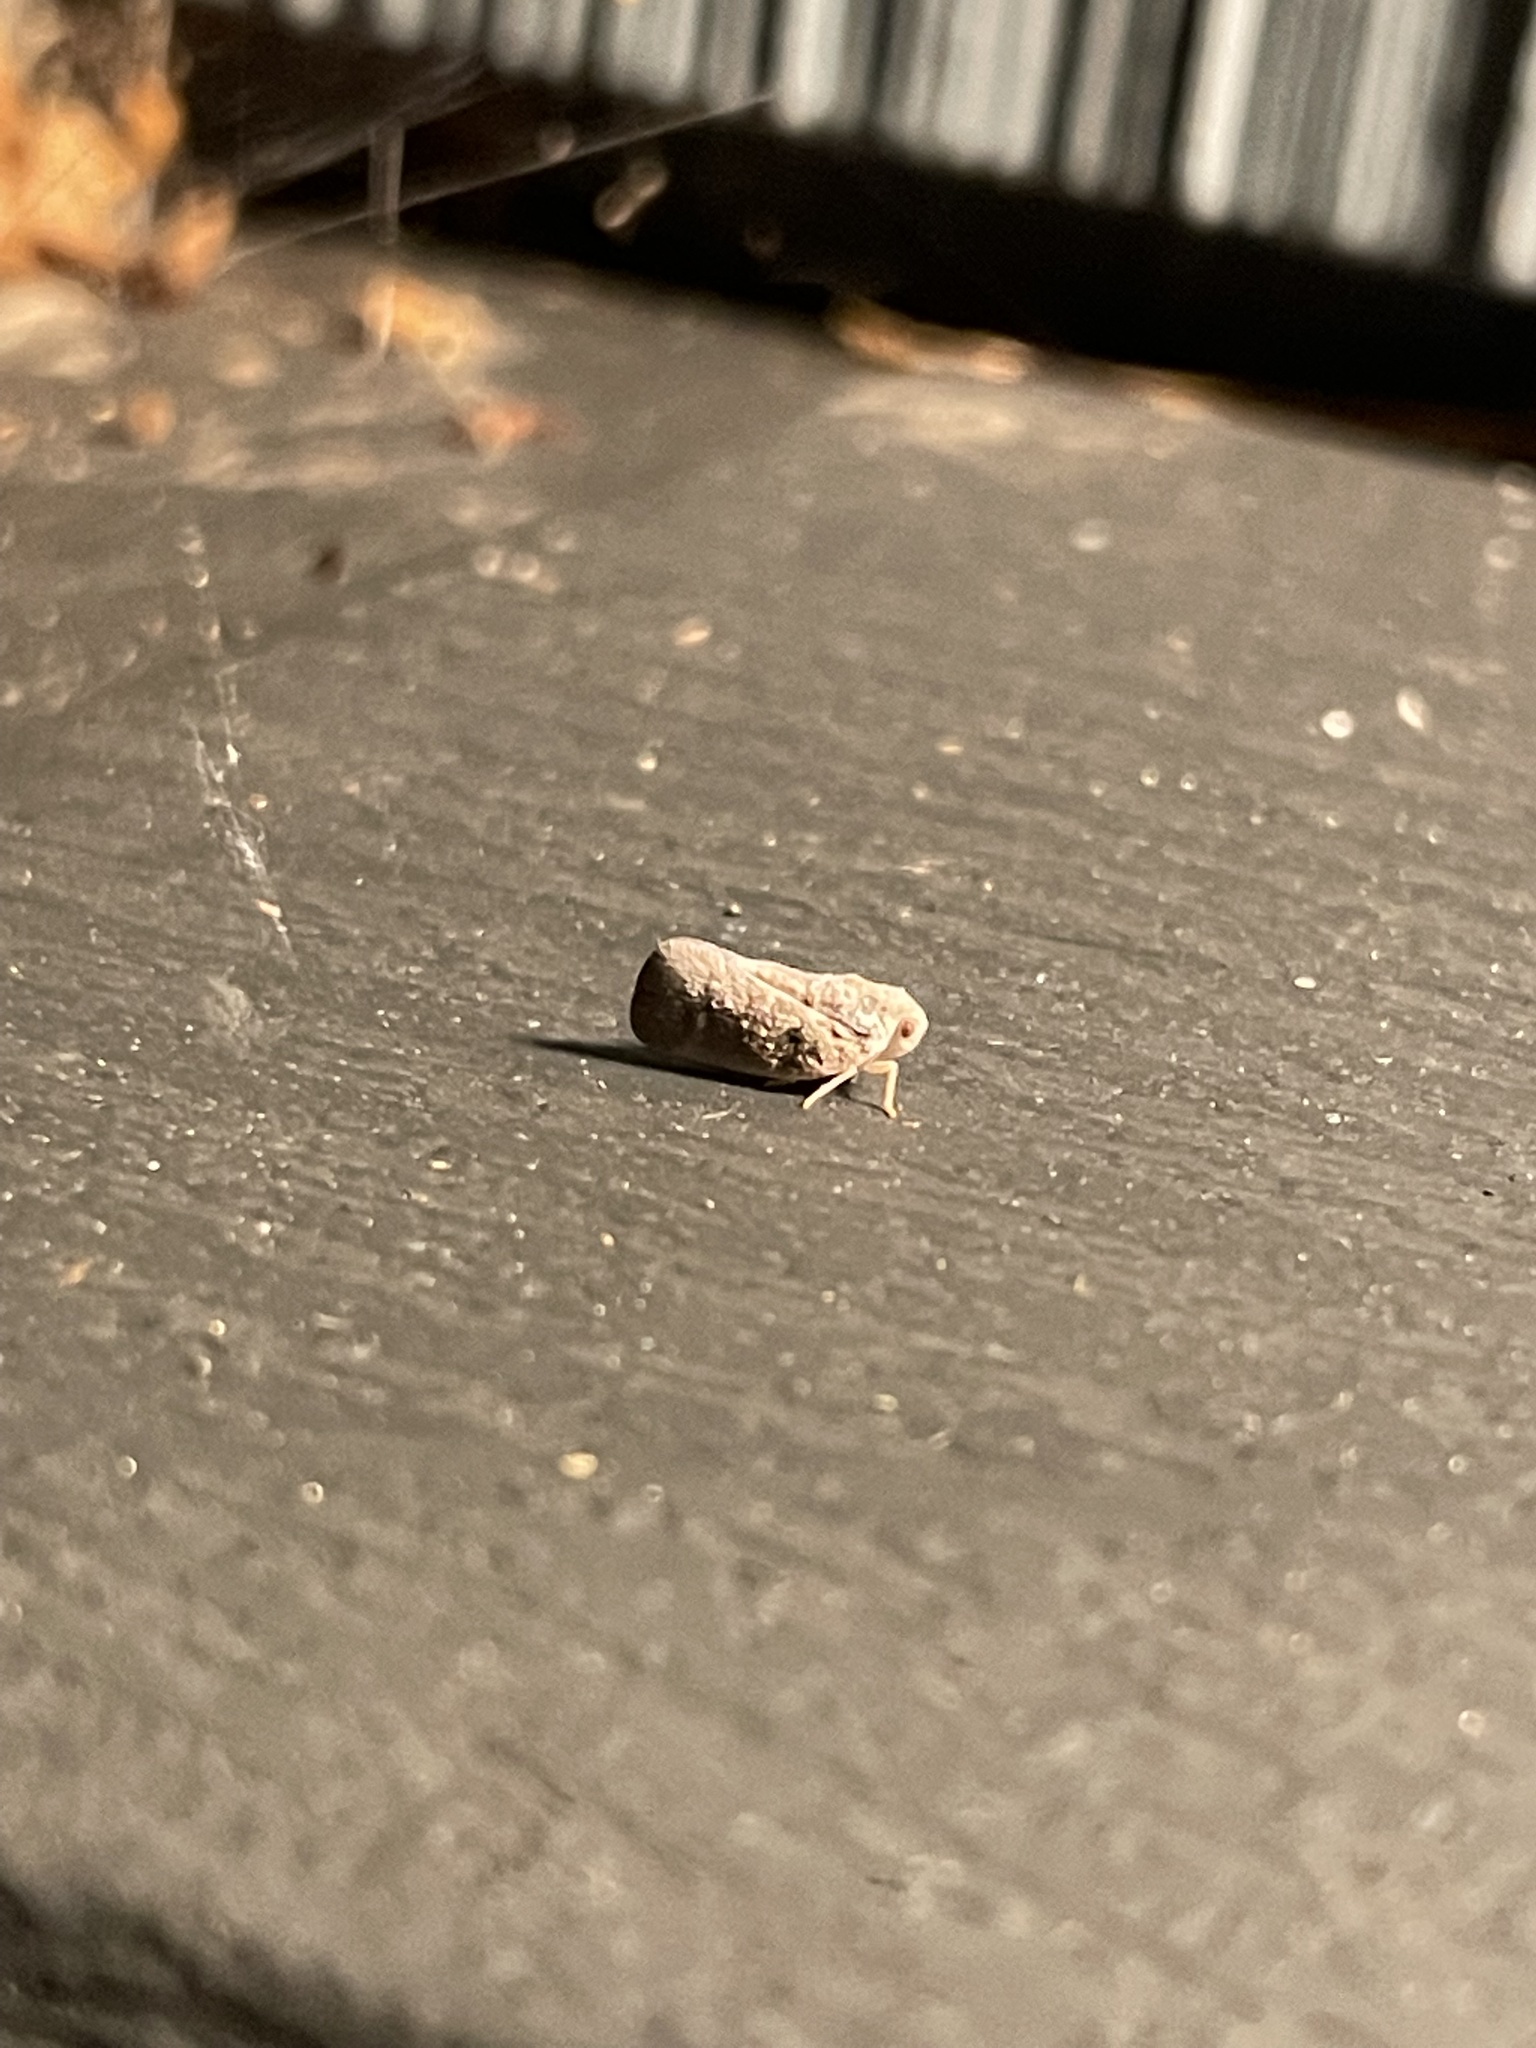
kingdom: Animalia
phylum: Arthropoda
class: Insecta
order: Hemiptera
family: Flatidae
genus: Metcalfa
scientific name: Metcalfa pruinosa
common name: Citrus flatid planthopper
